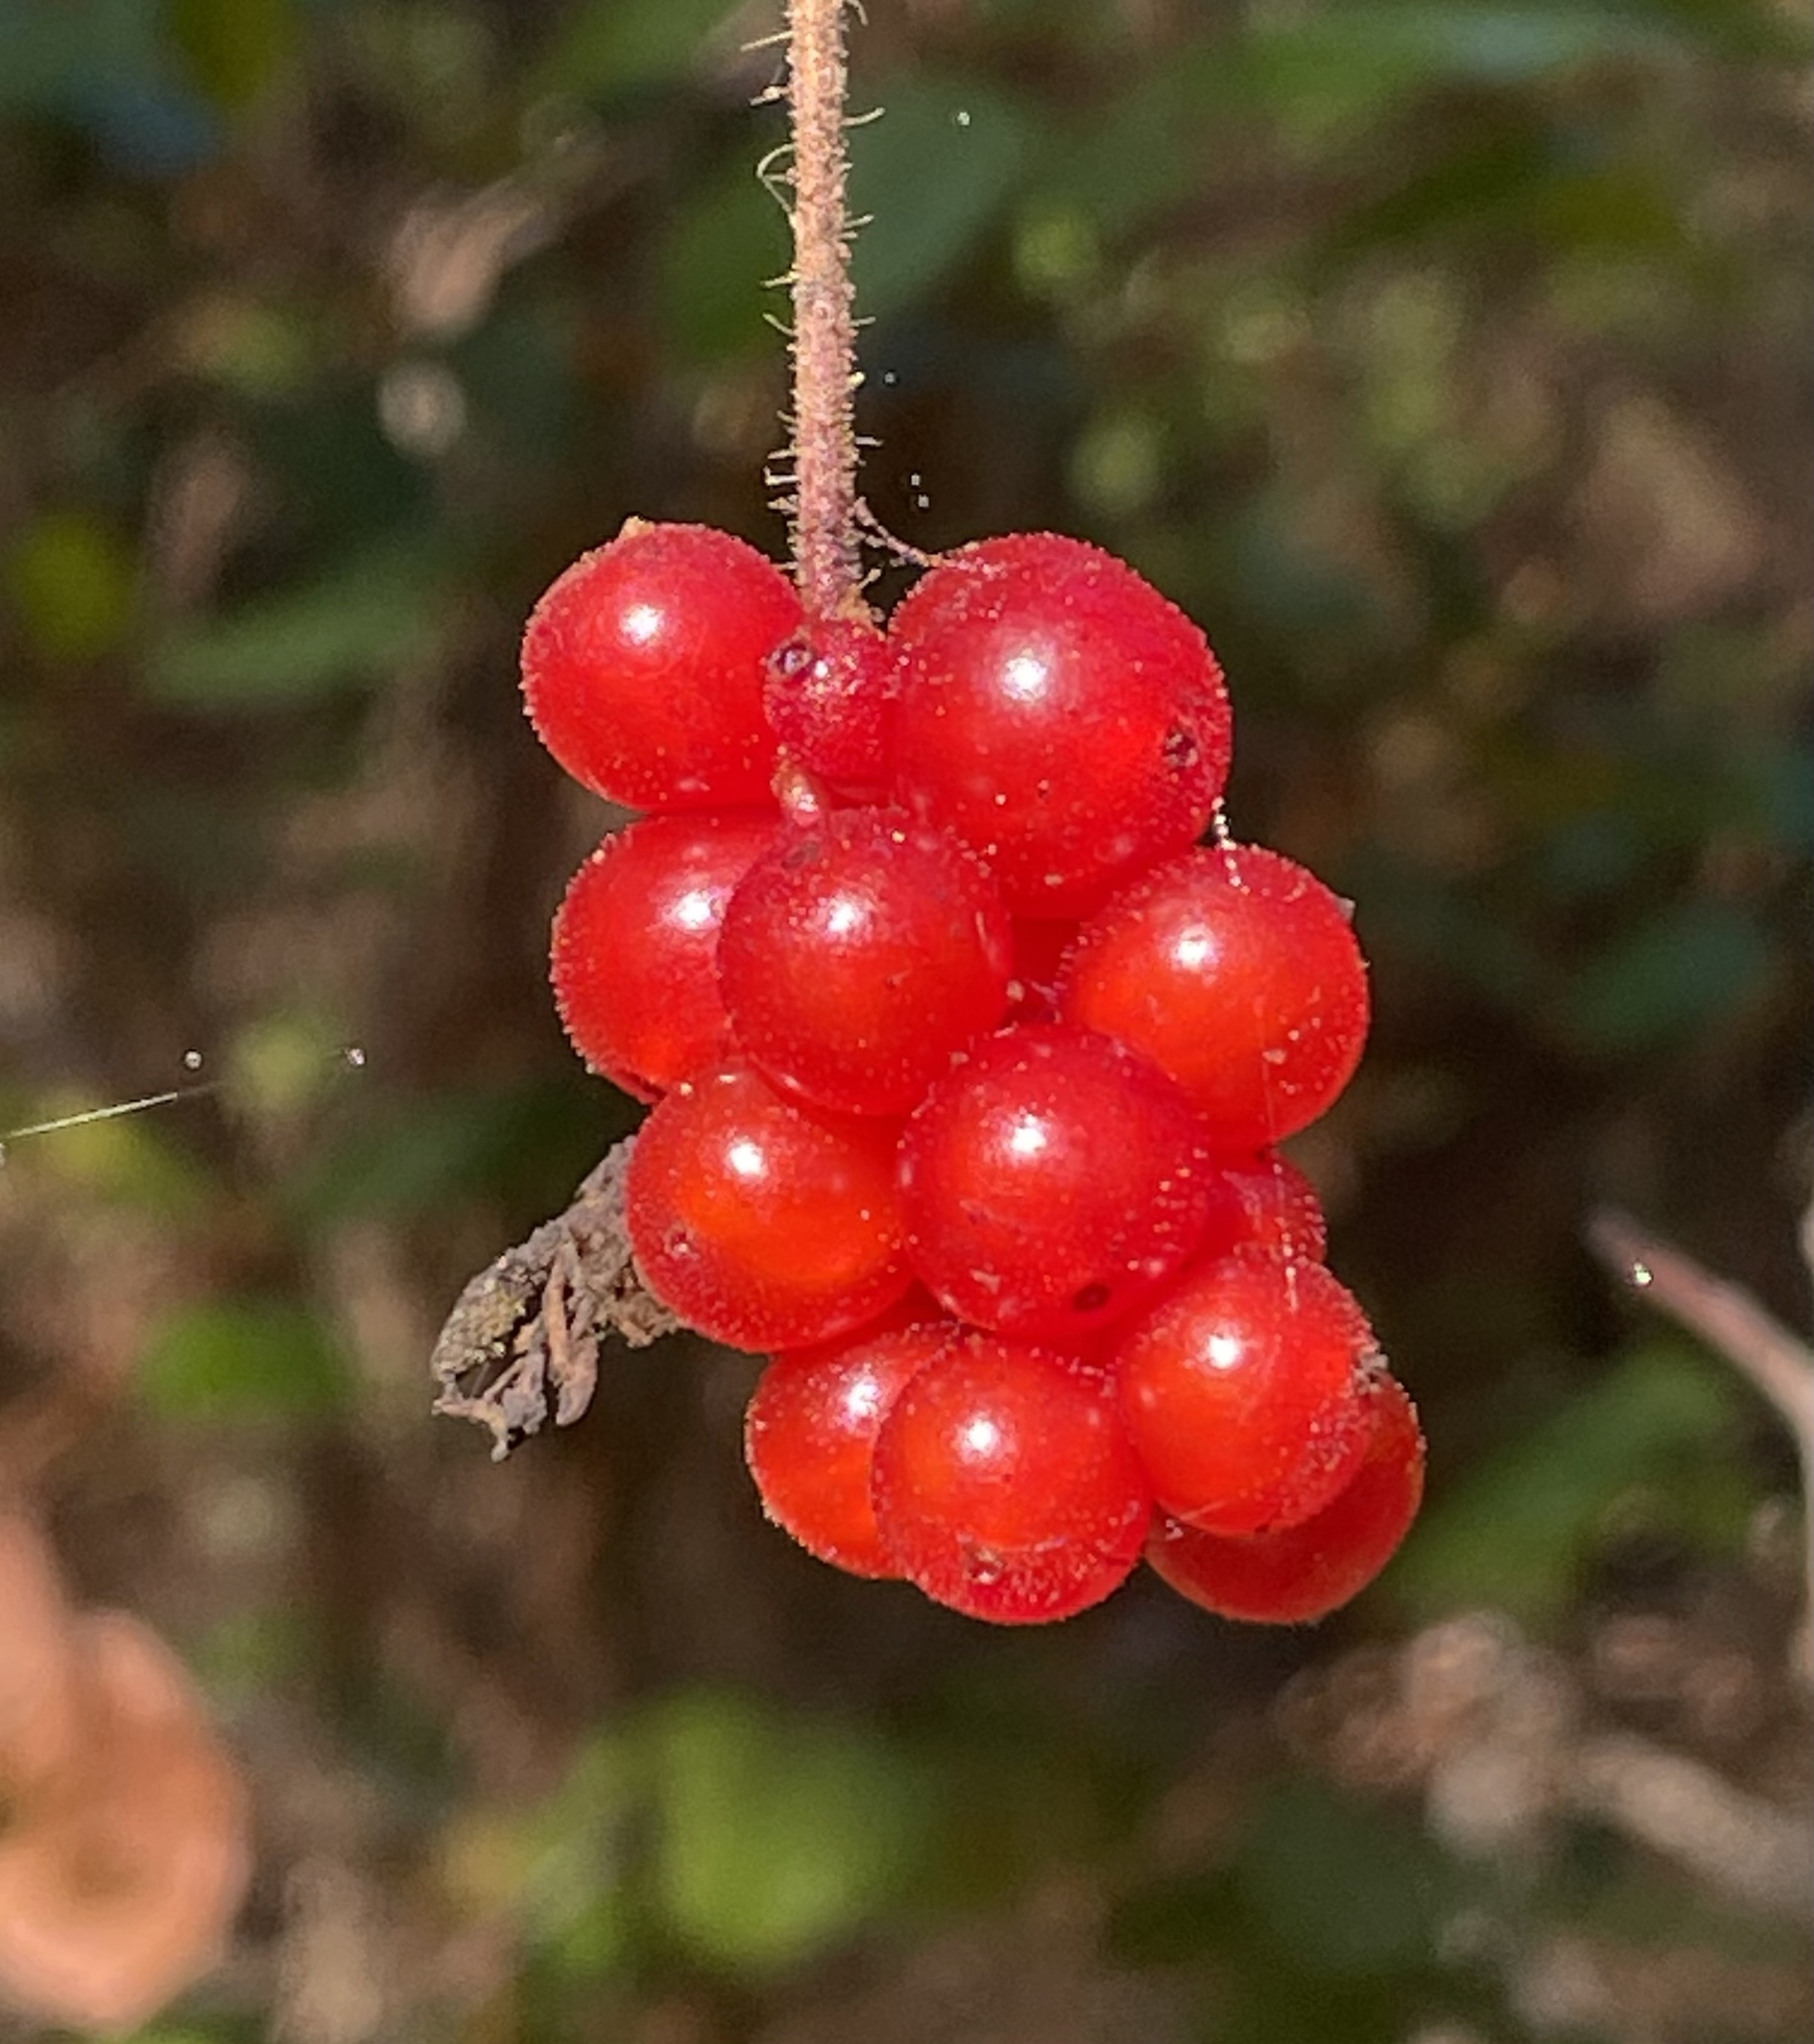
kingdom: Plantae
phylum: Tracheophyta
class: Magnoliopsida
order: Dipsacales
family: Caprifoliaceae
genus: Lonicera
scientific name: Lonicera hispidula
